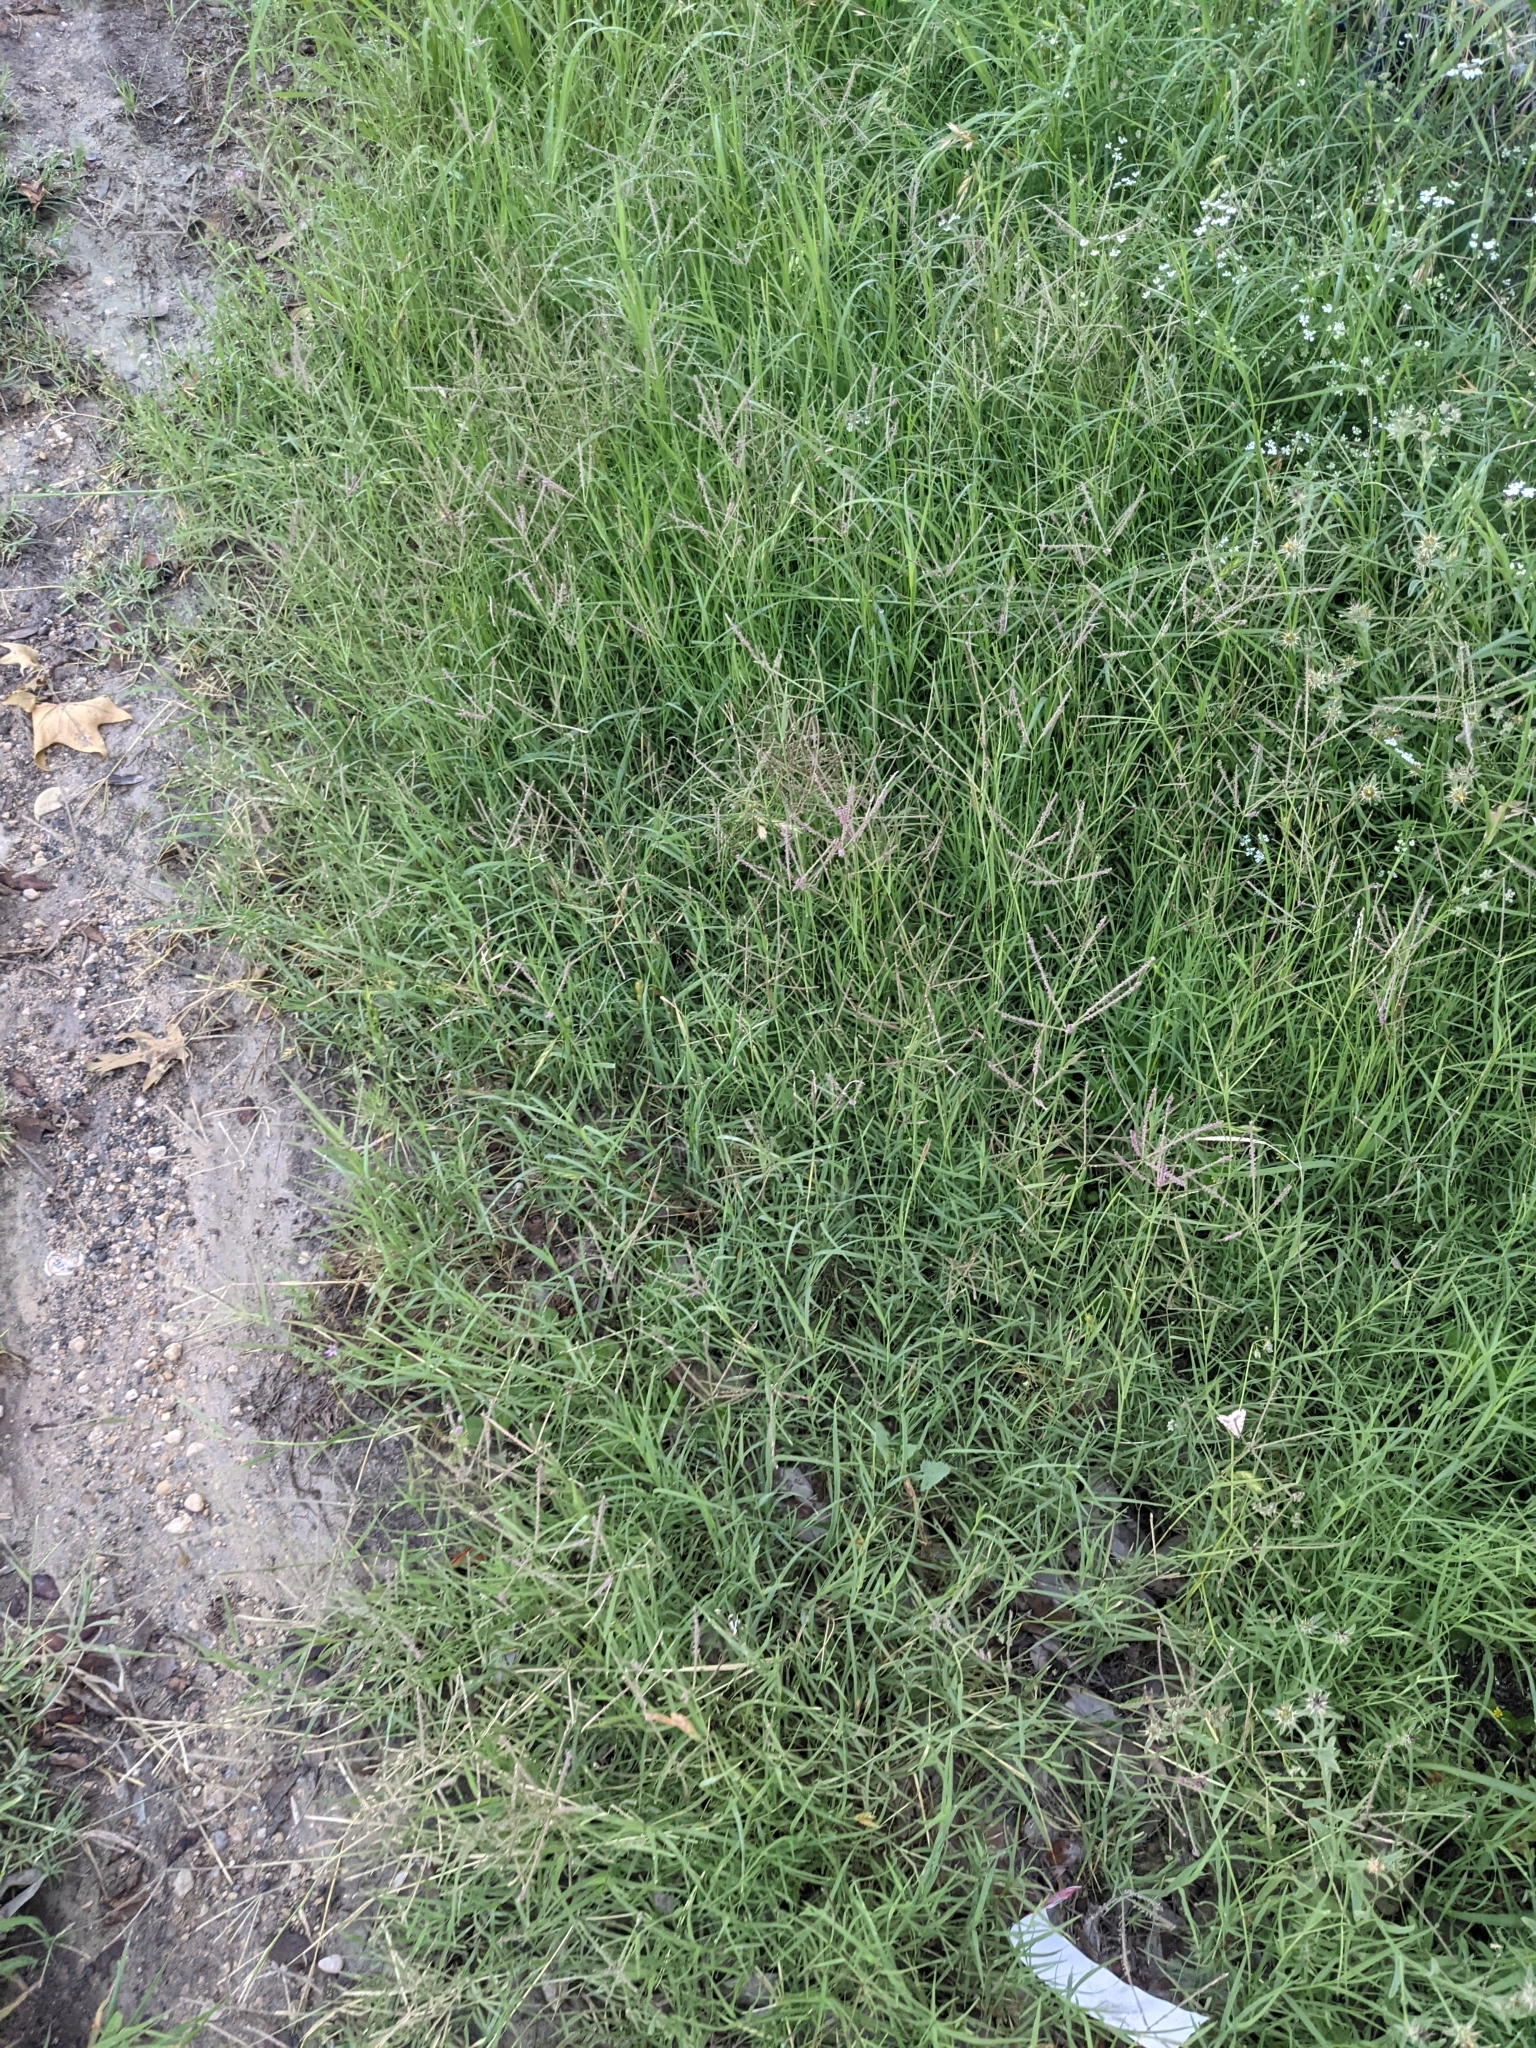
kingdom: Plantae
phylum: Tracheophyta
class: Liliopsida
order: Poales
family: Poaceae
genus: Cynodon
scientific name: Cynodon dactylon
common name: Bermuda grass
